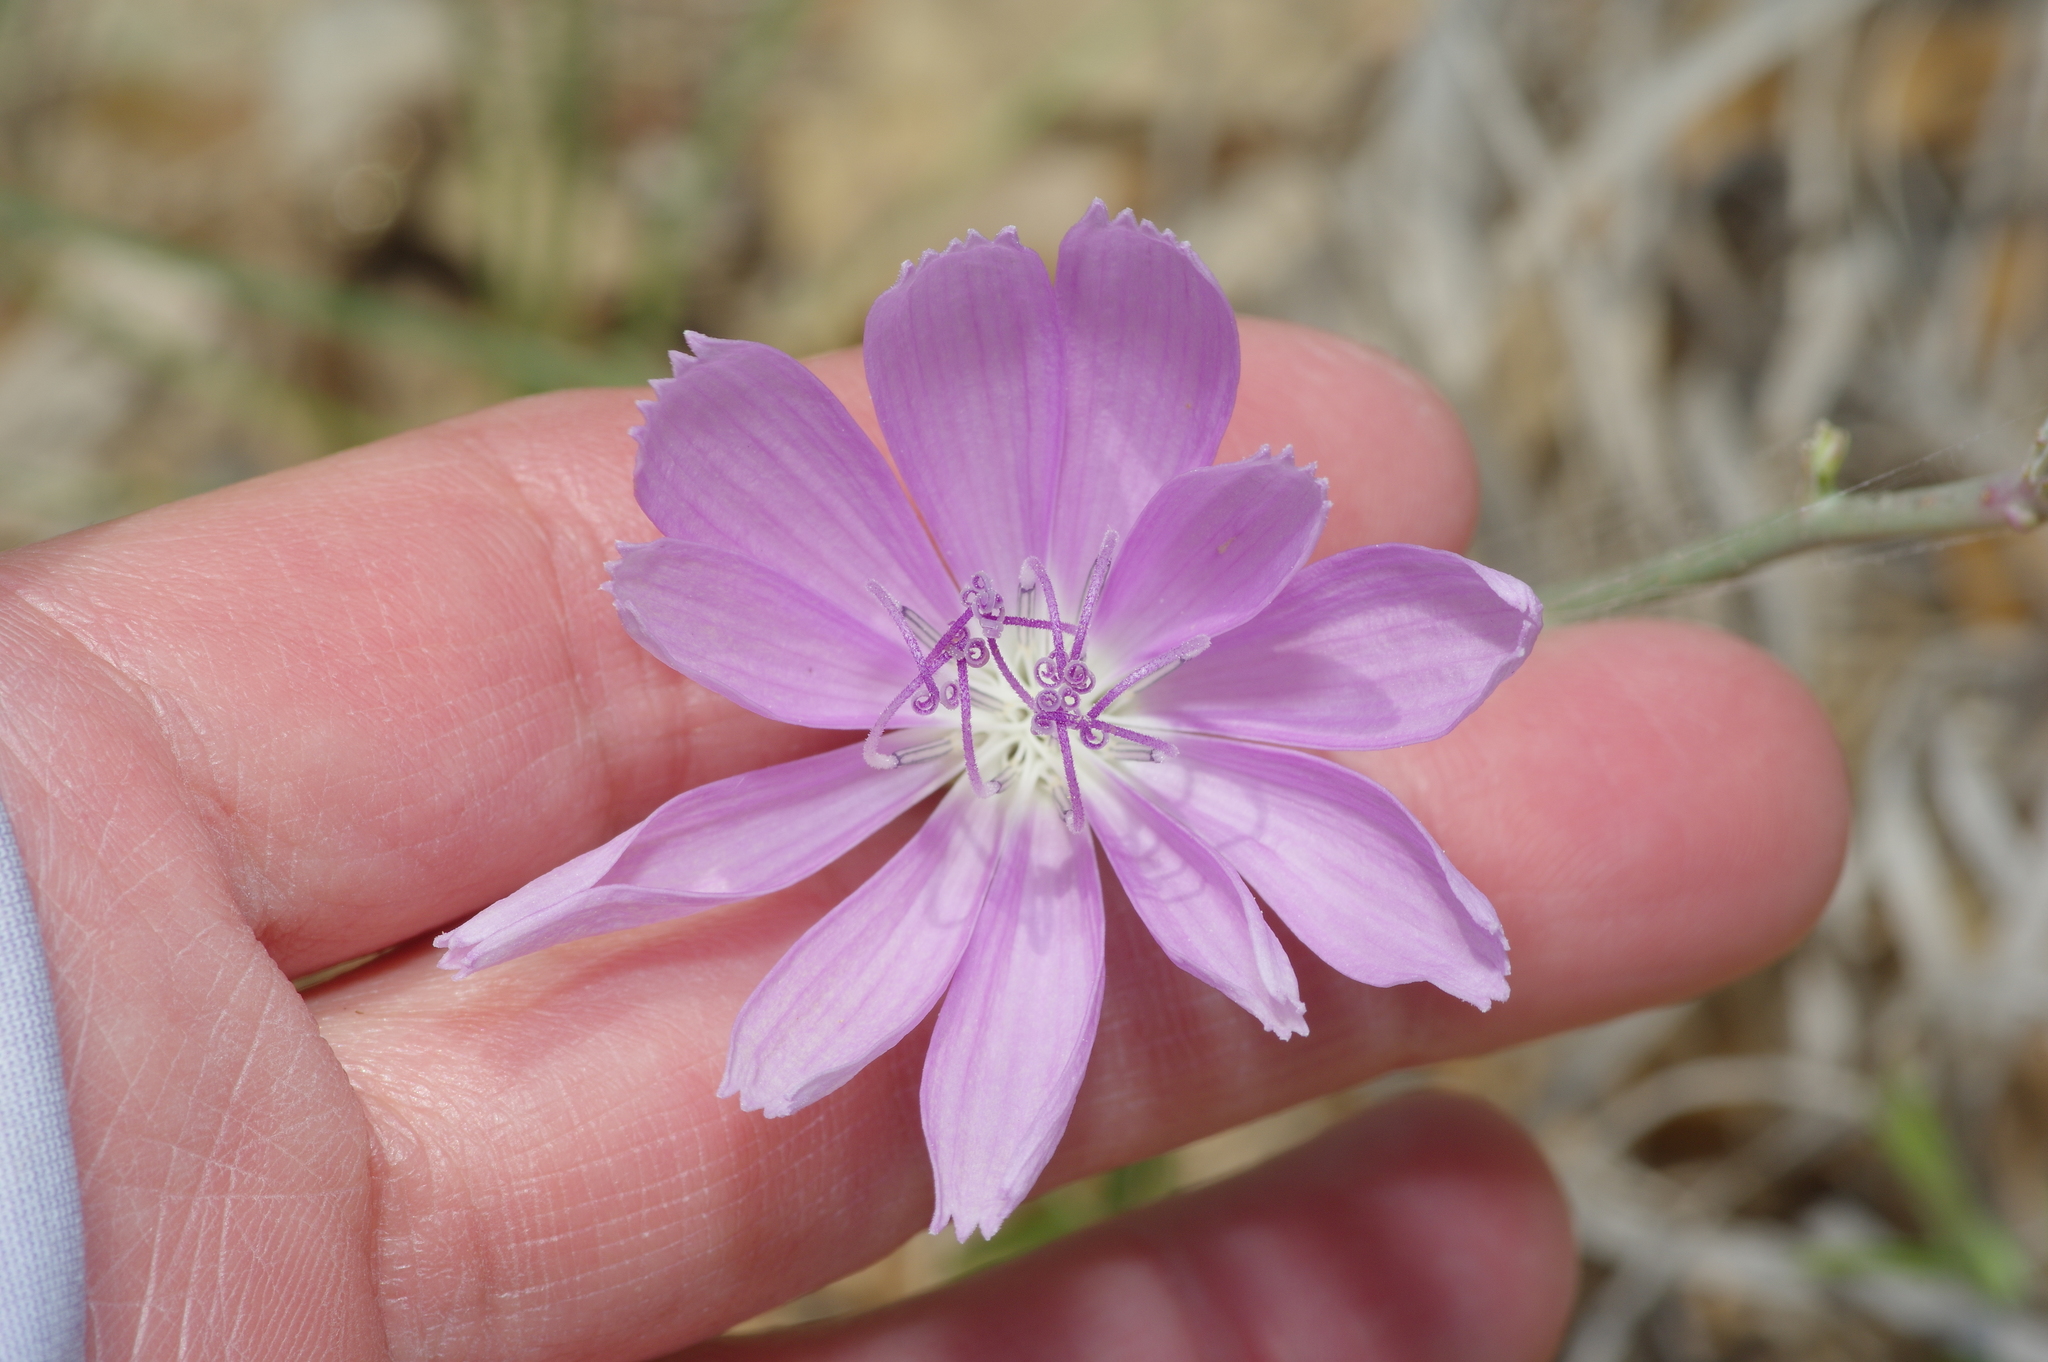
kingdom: Plantae
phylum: Tracheophyta
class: Magnoliopsida
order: Asterales
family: Asteraceae
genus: Lygodesmia
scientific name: Lygodesmia texana
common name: Texas skeleton-plant
